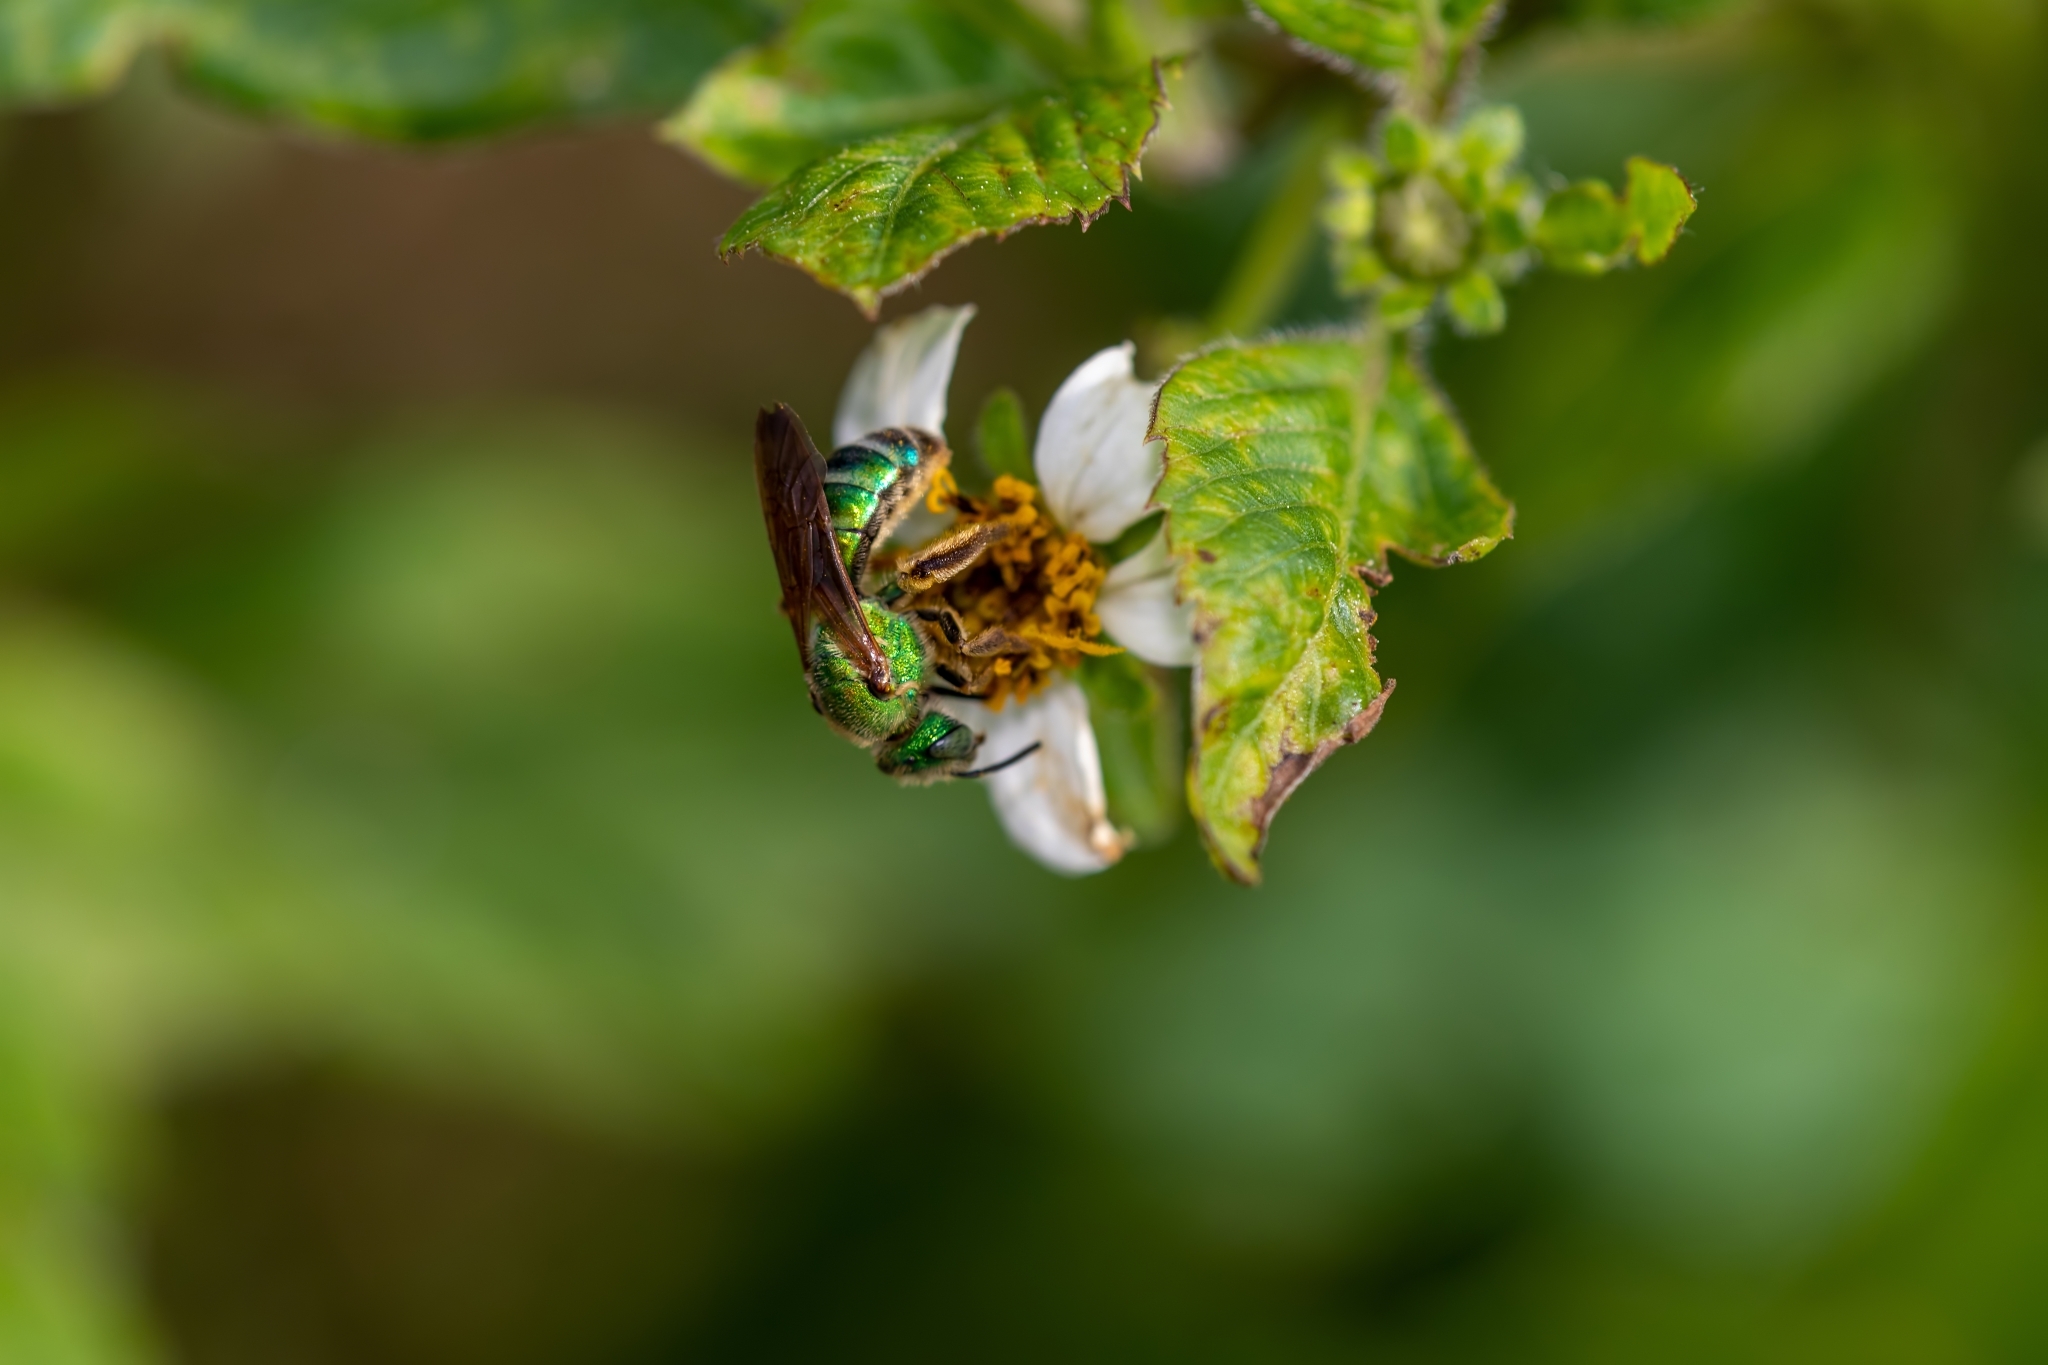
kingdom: Animalia
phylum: Arthropoda
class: Insecta
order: Hymenoptera
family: Halictidae
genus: Agapostemon
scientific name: Agapostemon splendens
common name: Brown-winged striped sweat bee
